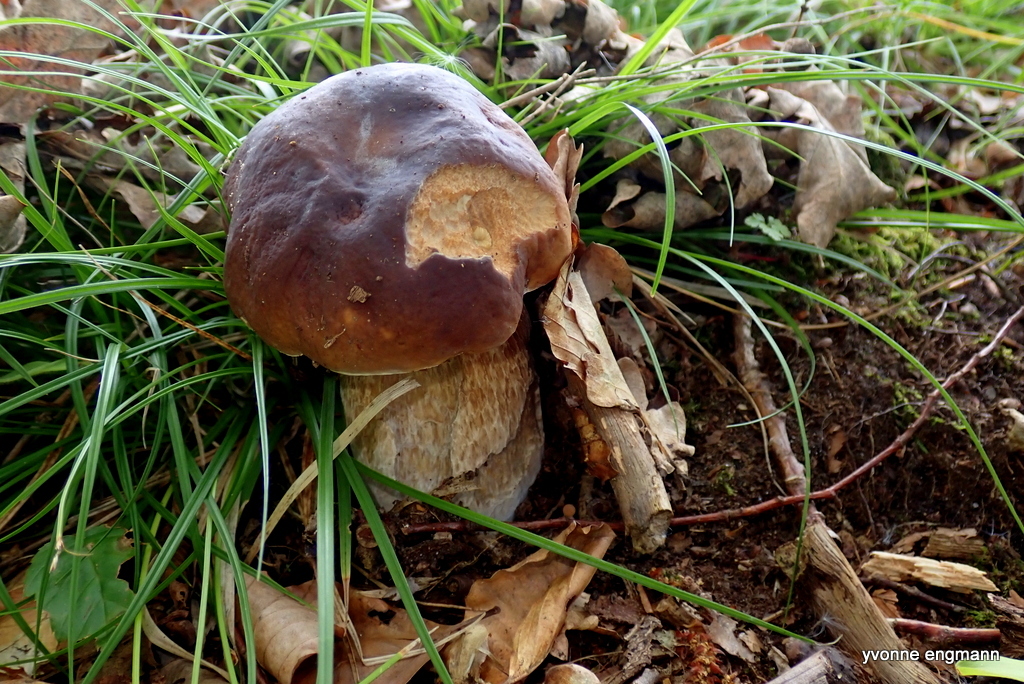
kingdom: Fungi
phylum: Basidiomycota
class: Agaricomycetes
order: Boletales
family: Boletaceae
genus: Boletus
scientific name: Boletus edulis
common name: Cep
